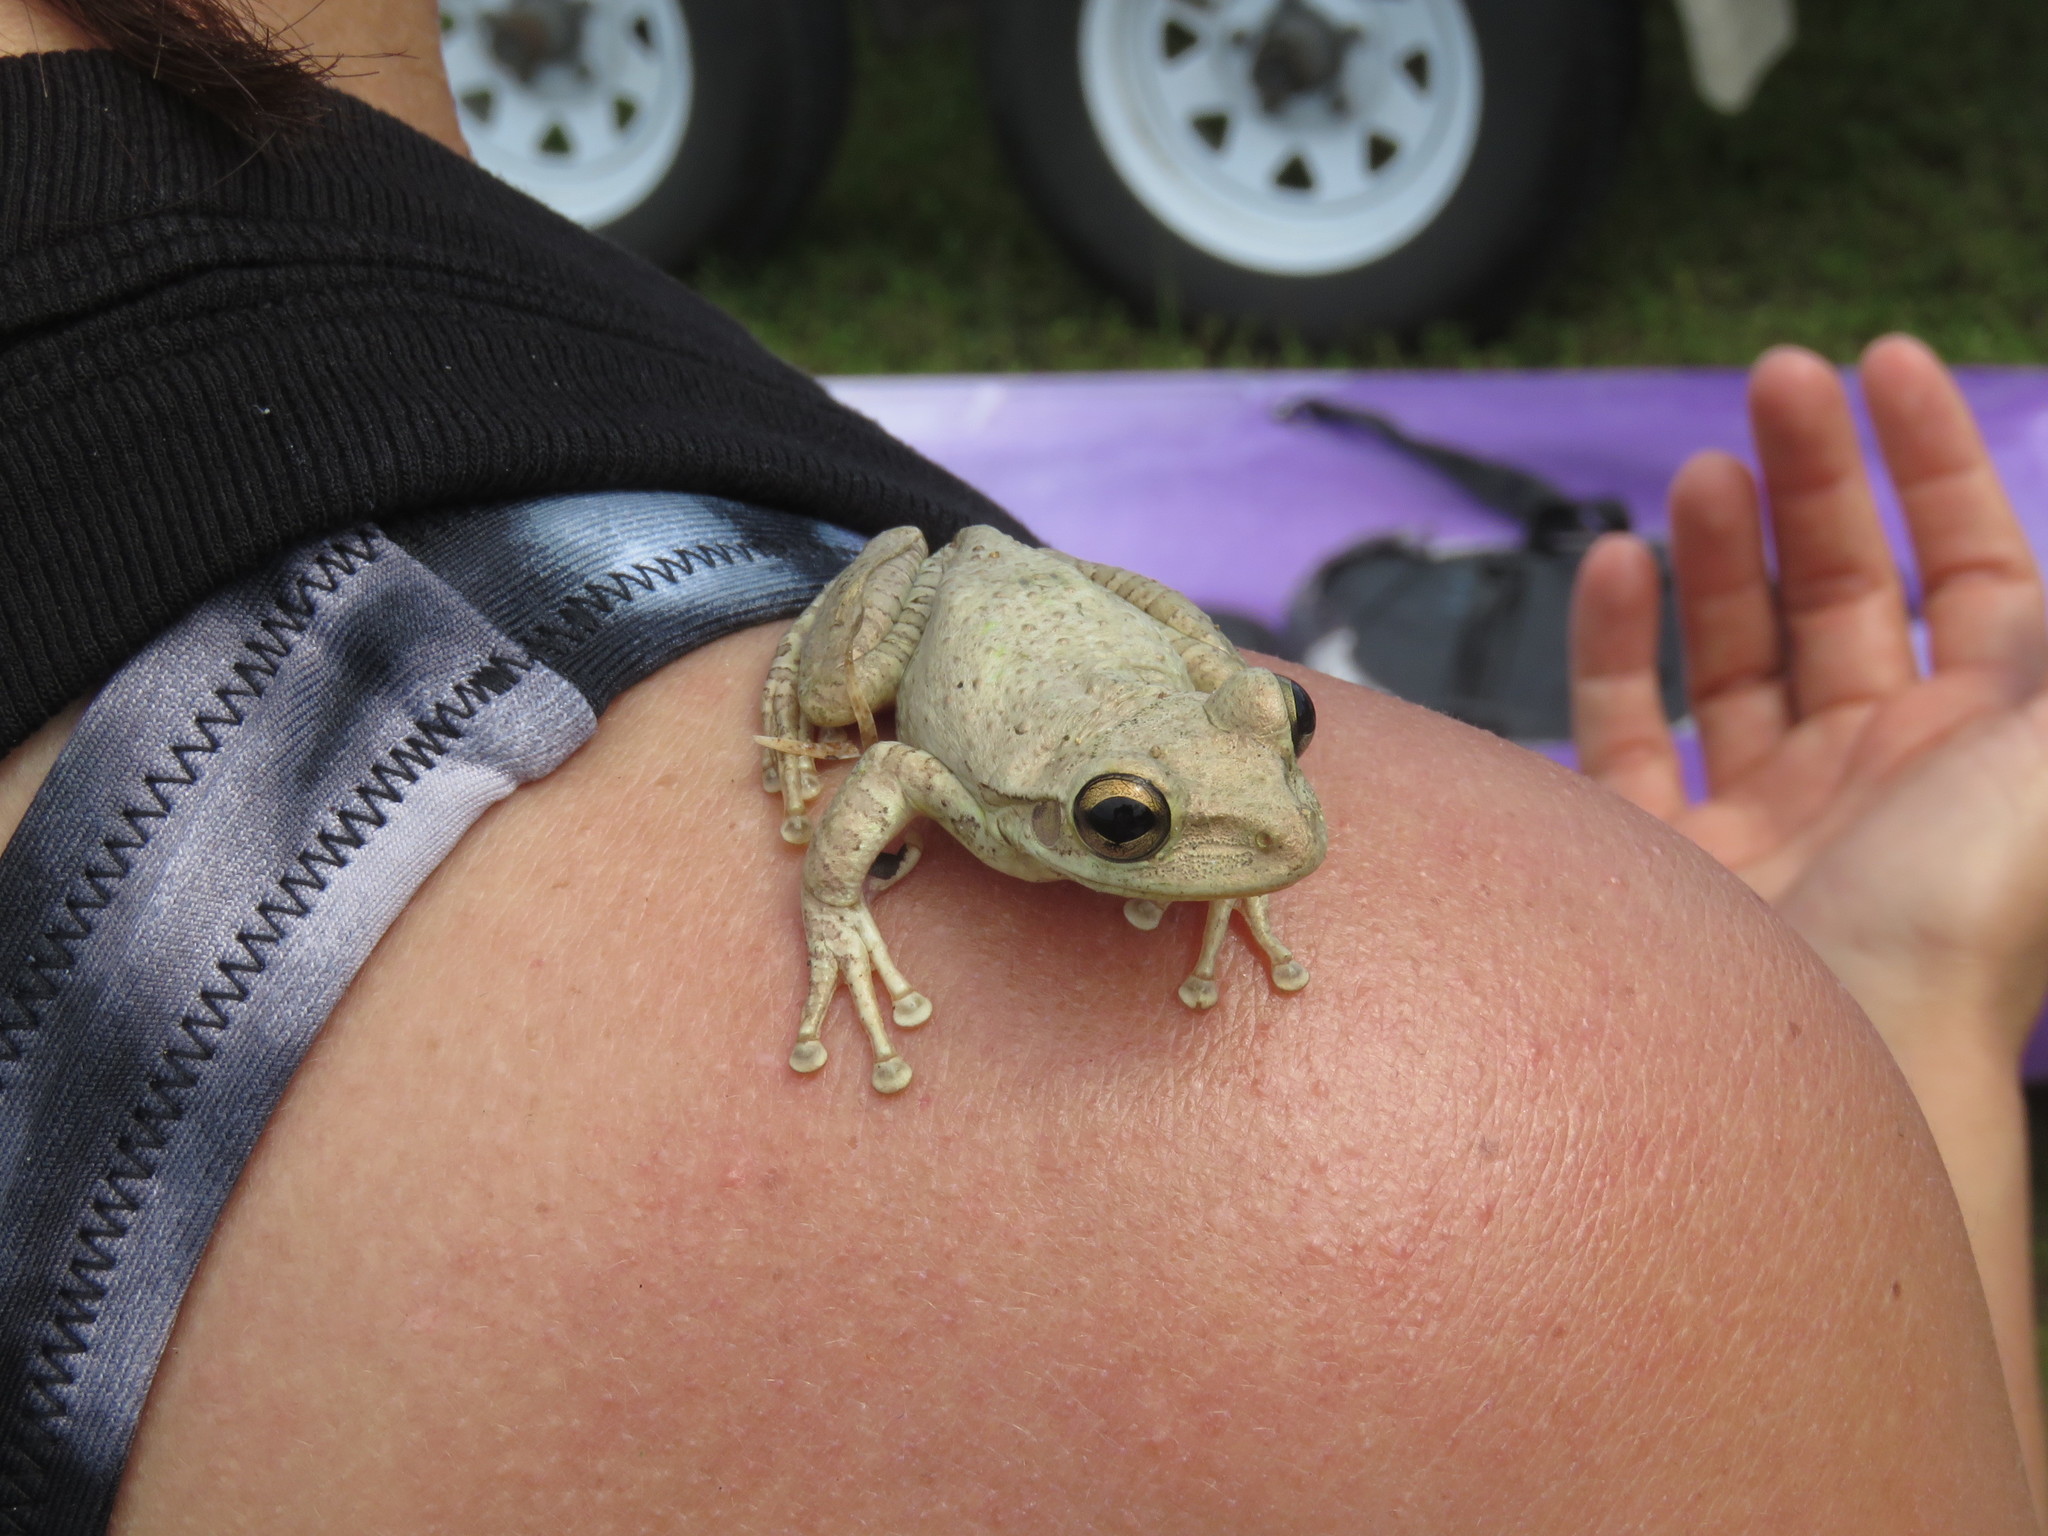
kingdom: Animalia
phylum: Chordata
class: Amphibia
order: Anura
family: Hylidae
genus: Osteopilus
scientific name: Osteopilus septentrionalis
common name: Cuban treefrog
